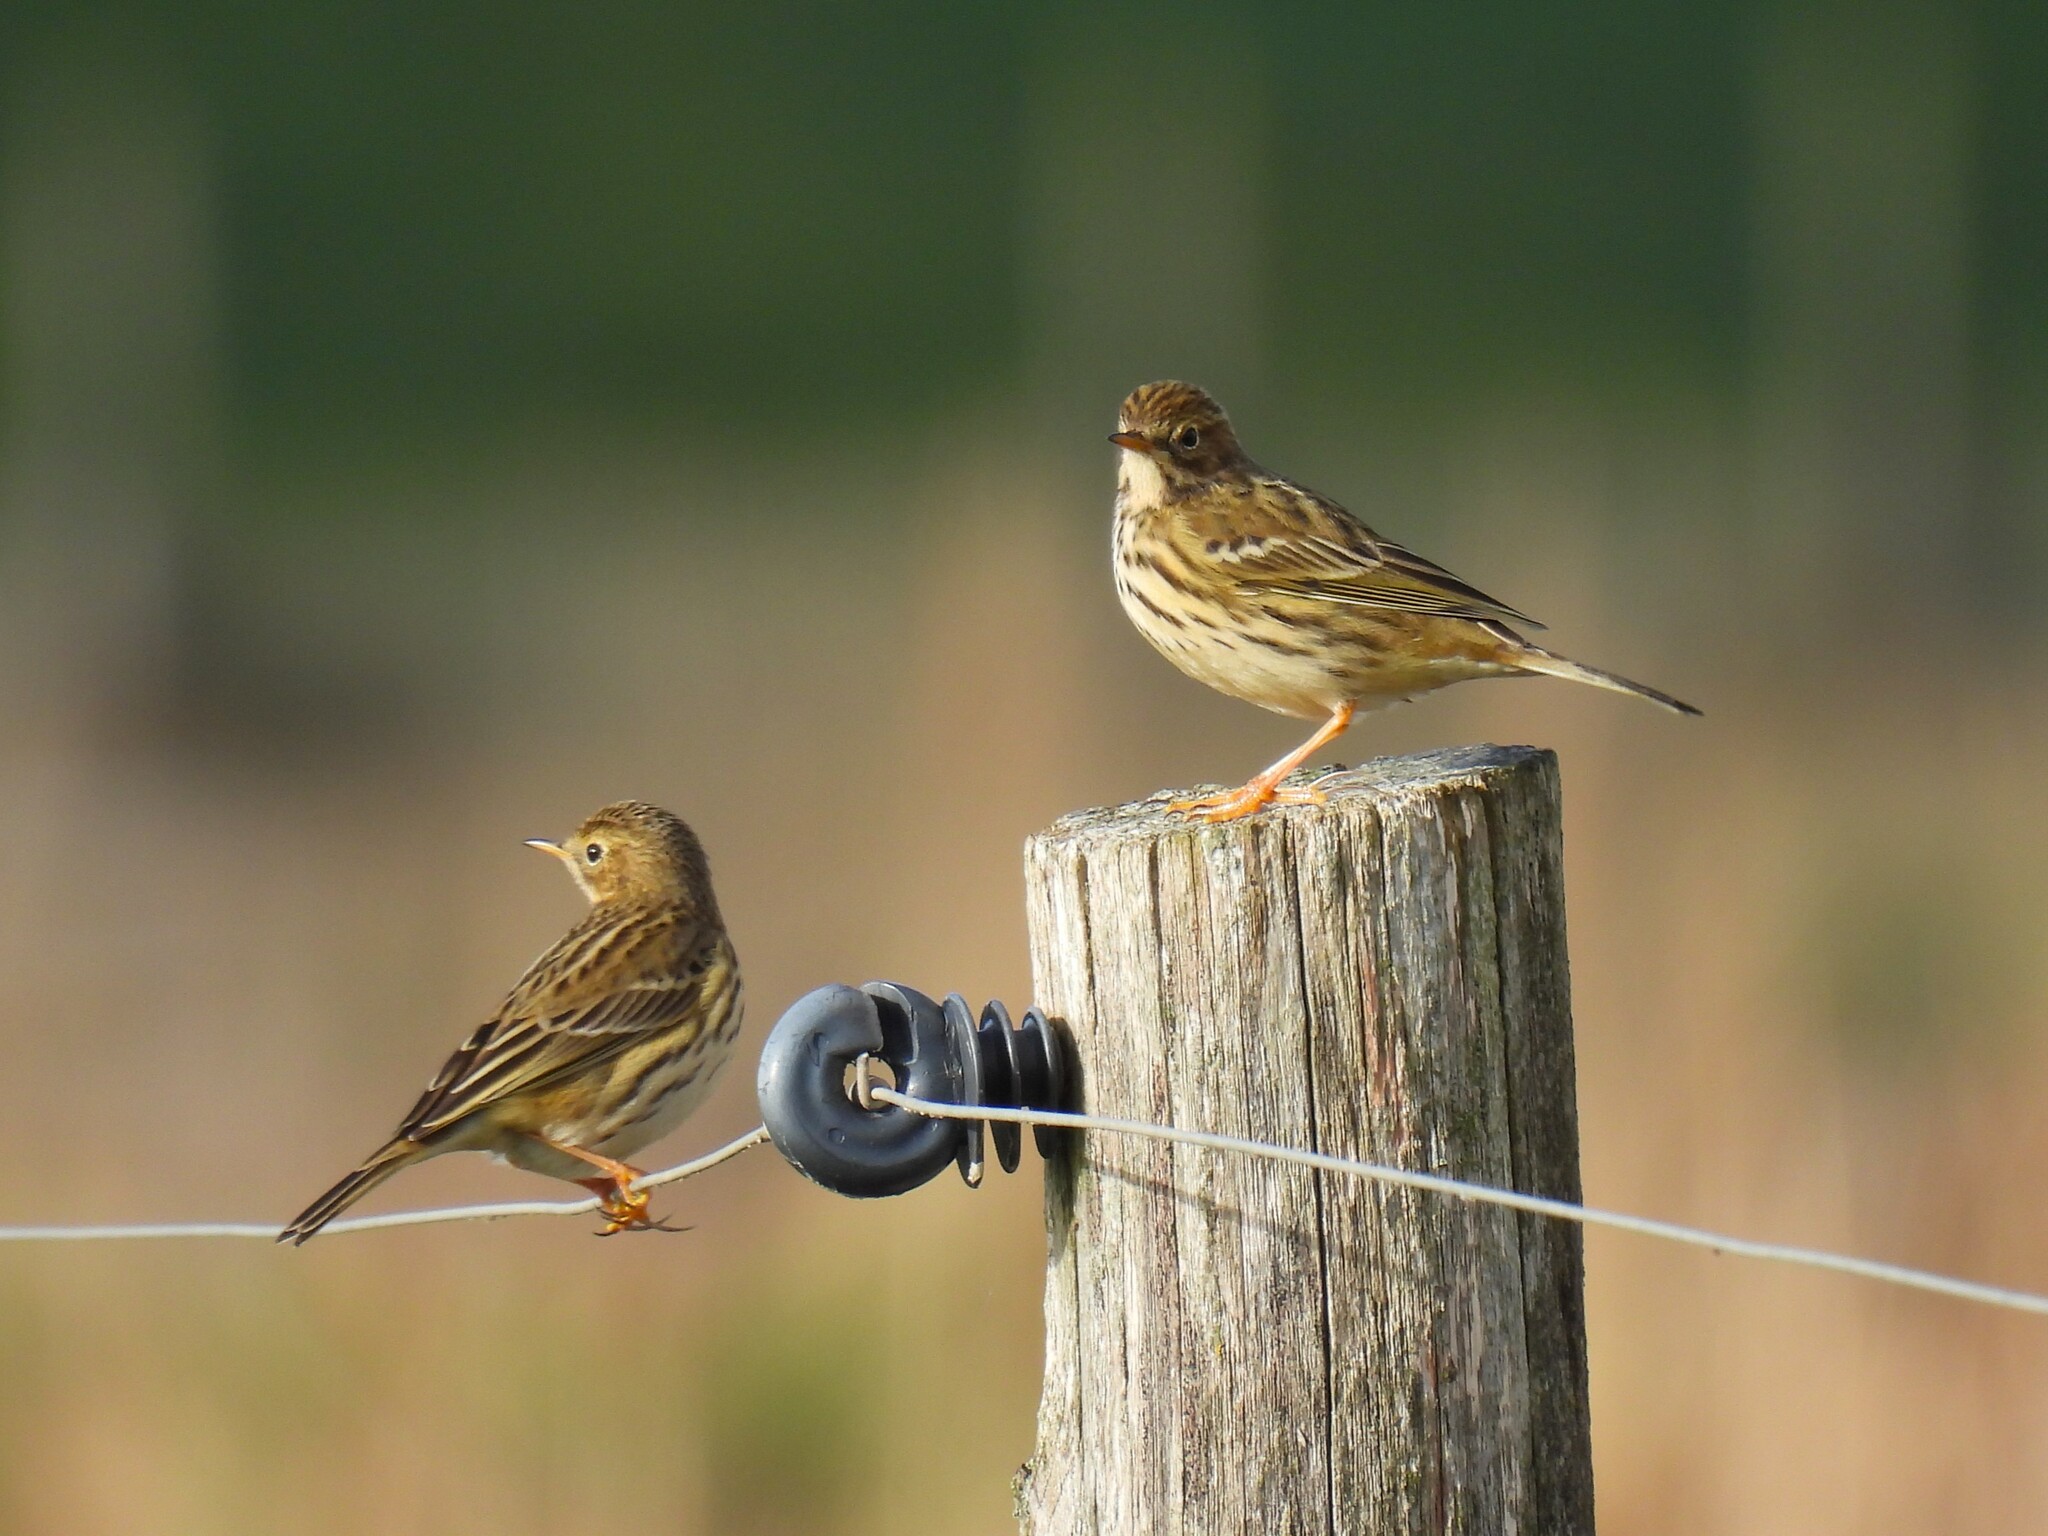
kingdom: Animalia
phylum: Chordata
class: Aves
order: Passeriformes
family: Motacillidae
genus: Anthus
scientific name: Anthus pratensis
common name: Meadow pipit
